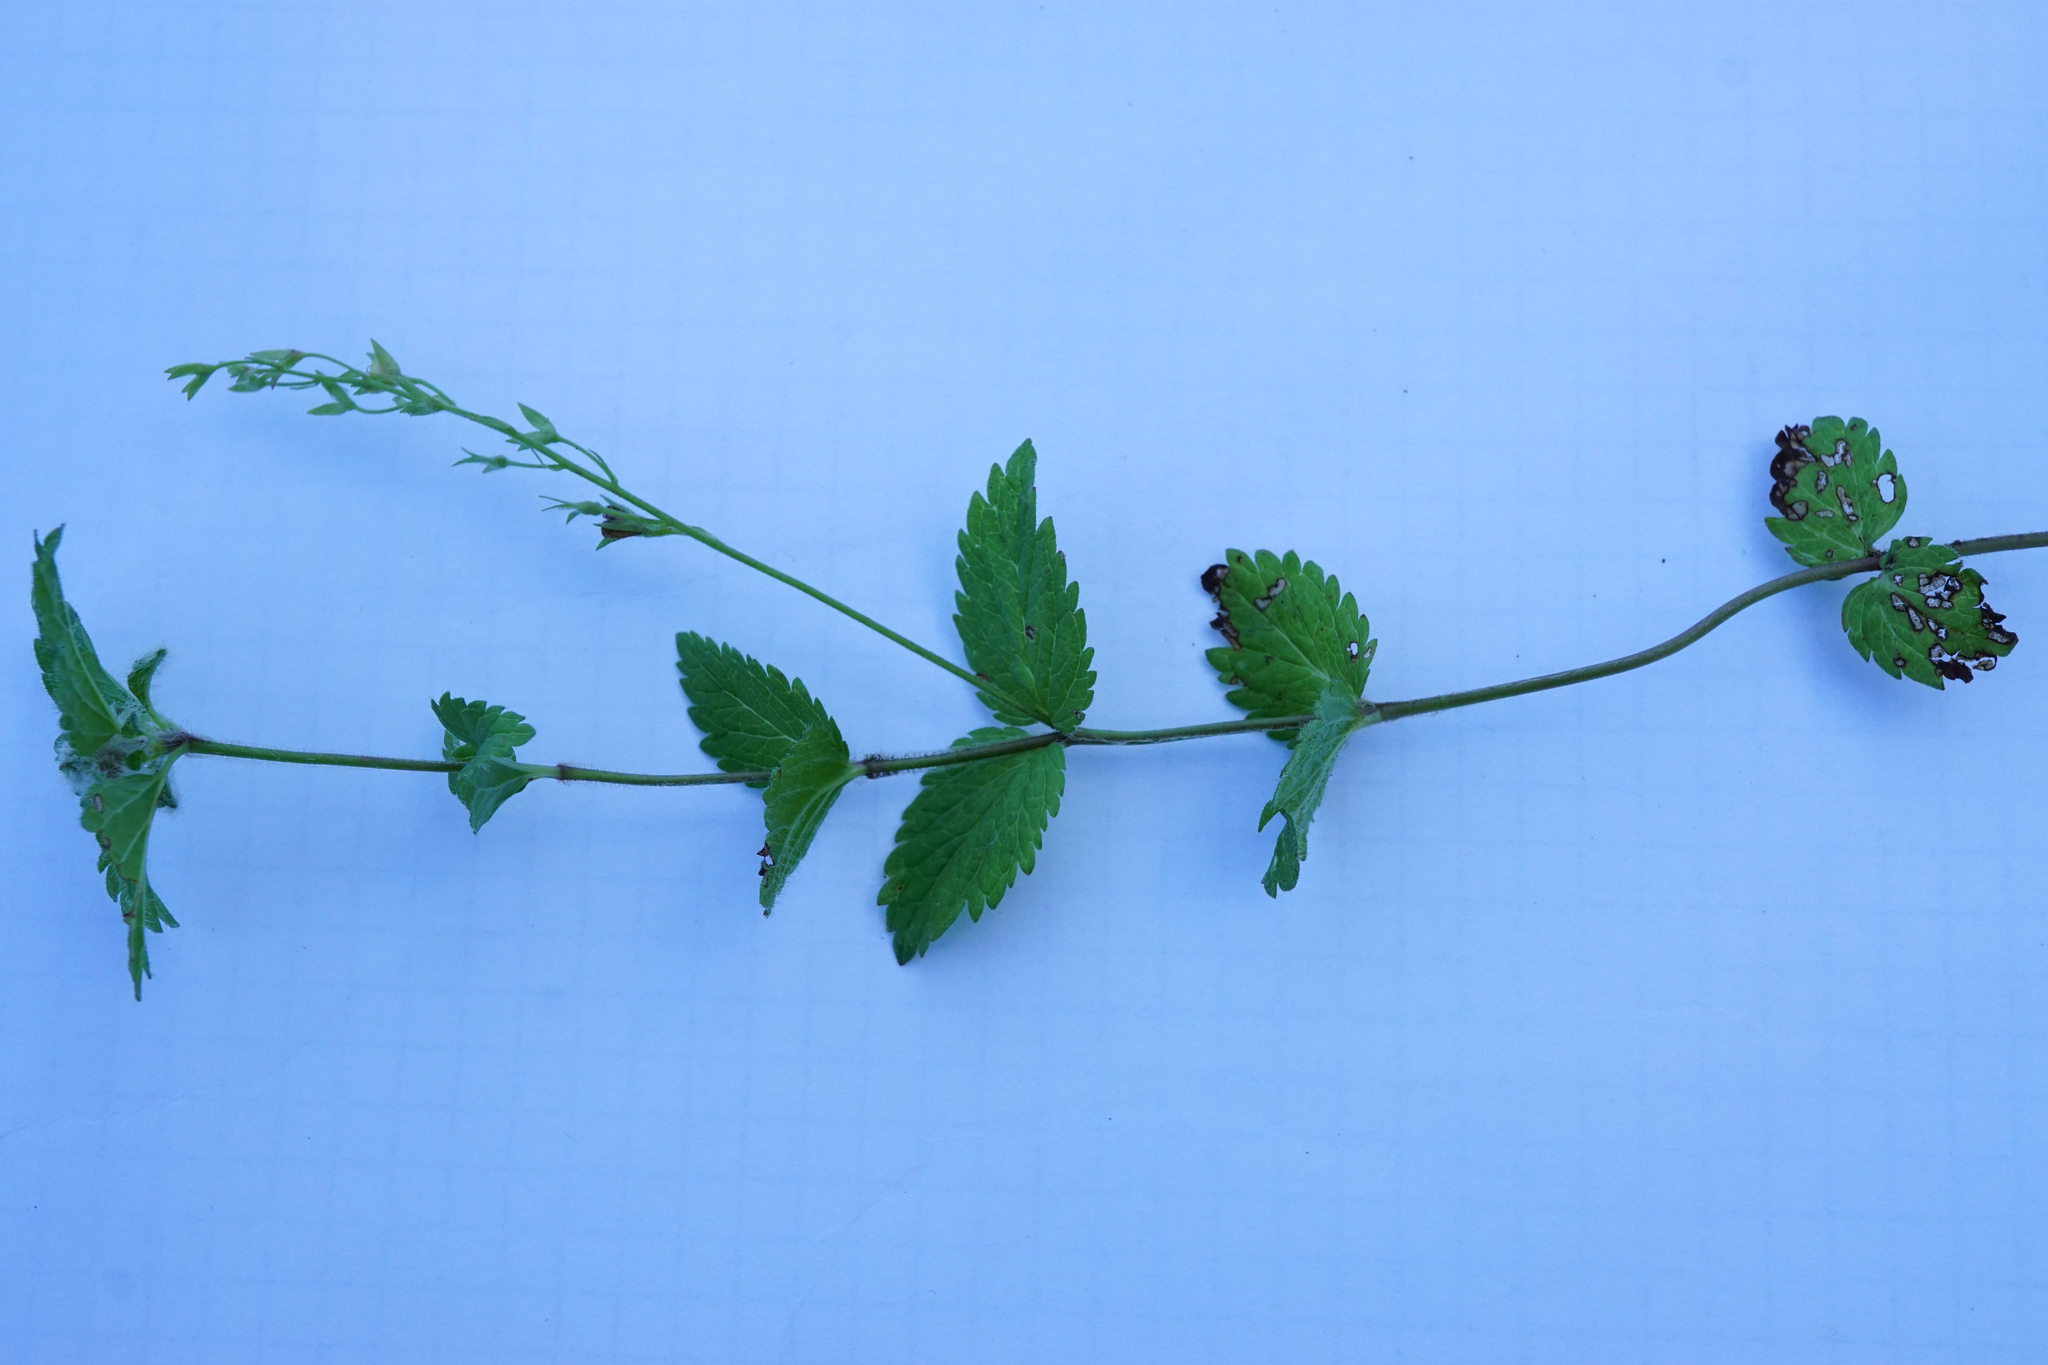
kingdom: Plantae
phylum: Tracheophyta
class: Magnoliopsida
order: Lamiales
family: Plantaginaceae
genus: Veronica
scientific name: Veronica chamaedrys
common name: Germander speedwell
